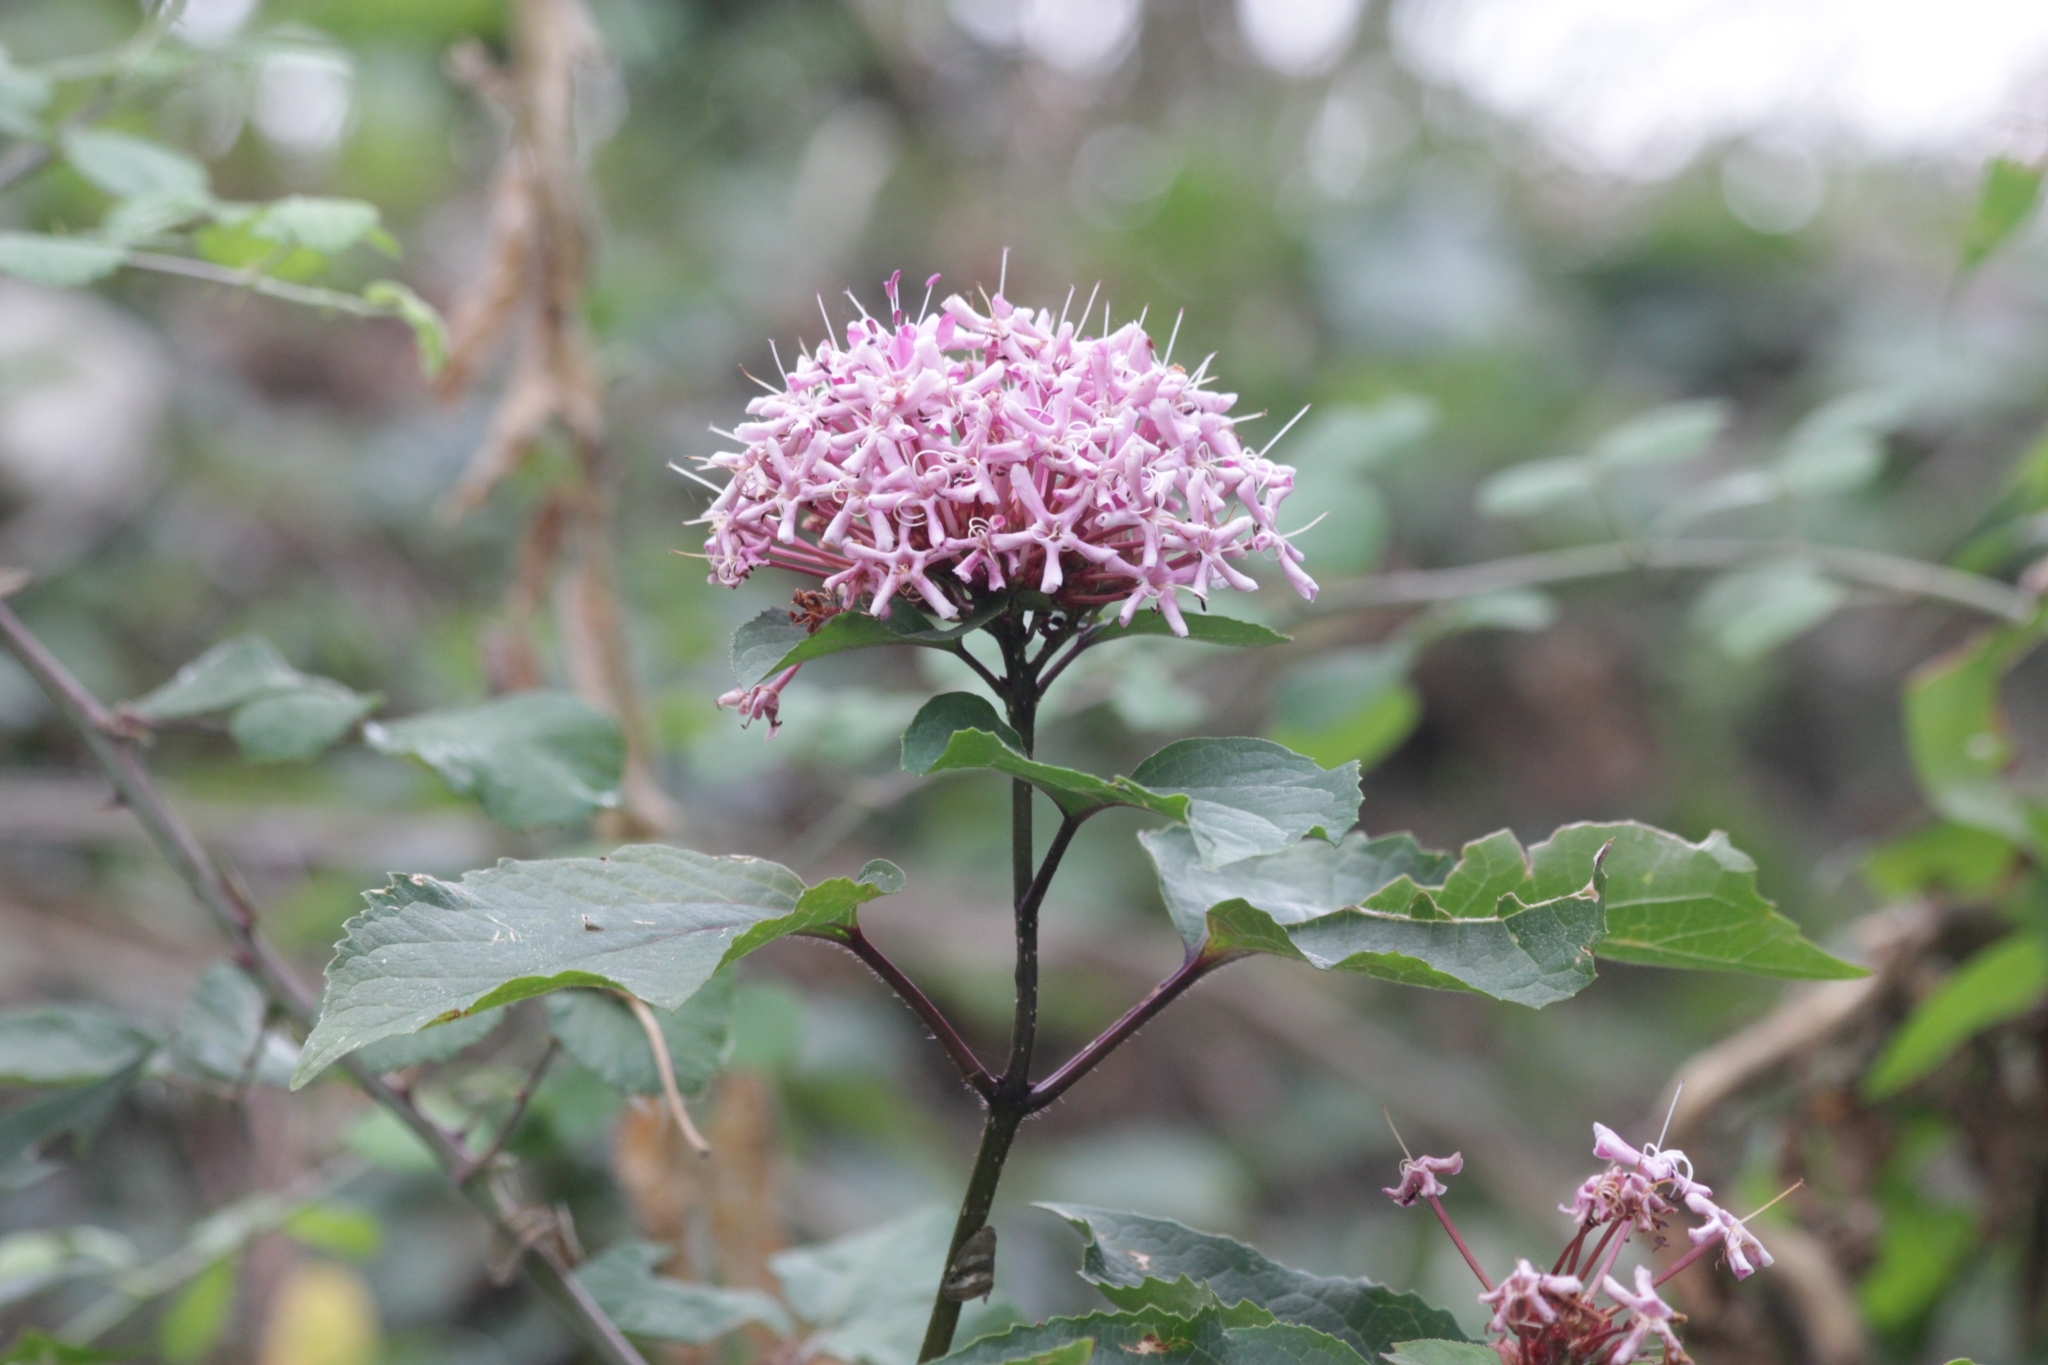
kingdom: Plantae
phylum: Tracheophyta
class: Magnoliopsida
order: Lamiales
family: Lamiaceae
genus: Clerodendrum
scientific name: Clerodendrum bungei
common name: Rose glorybower
